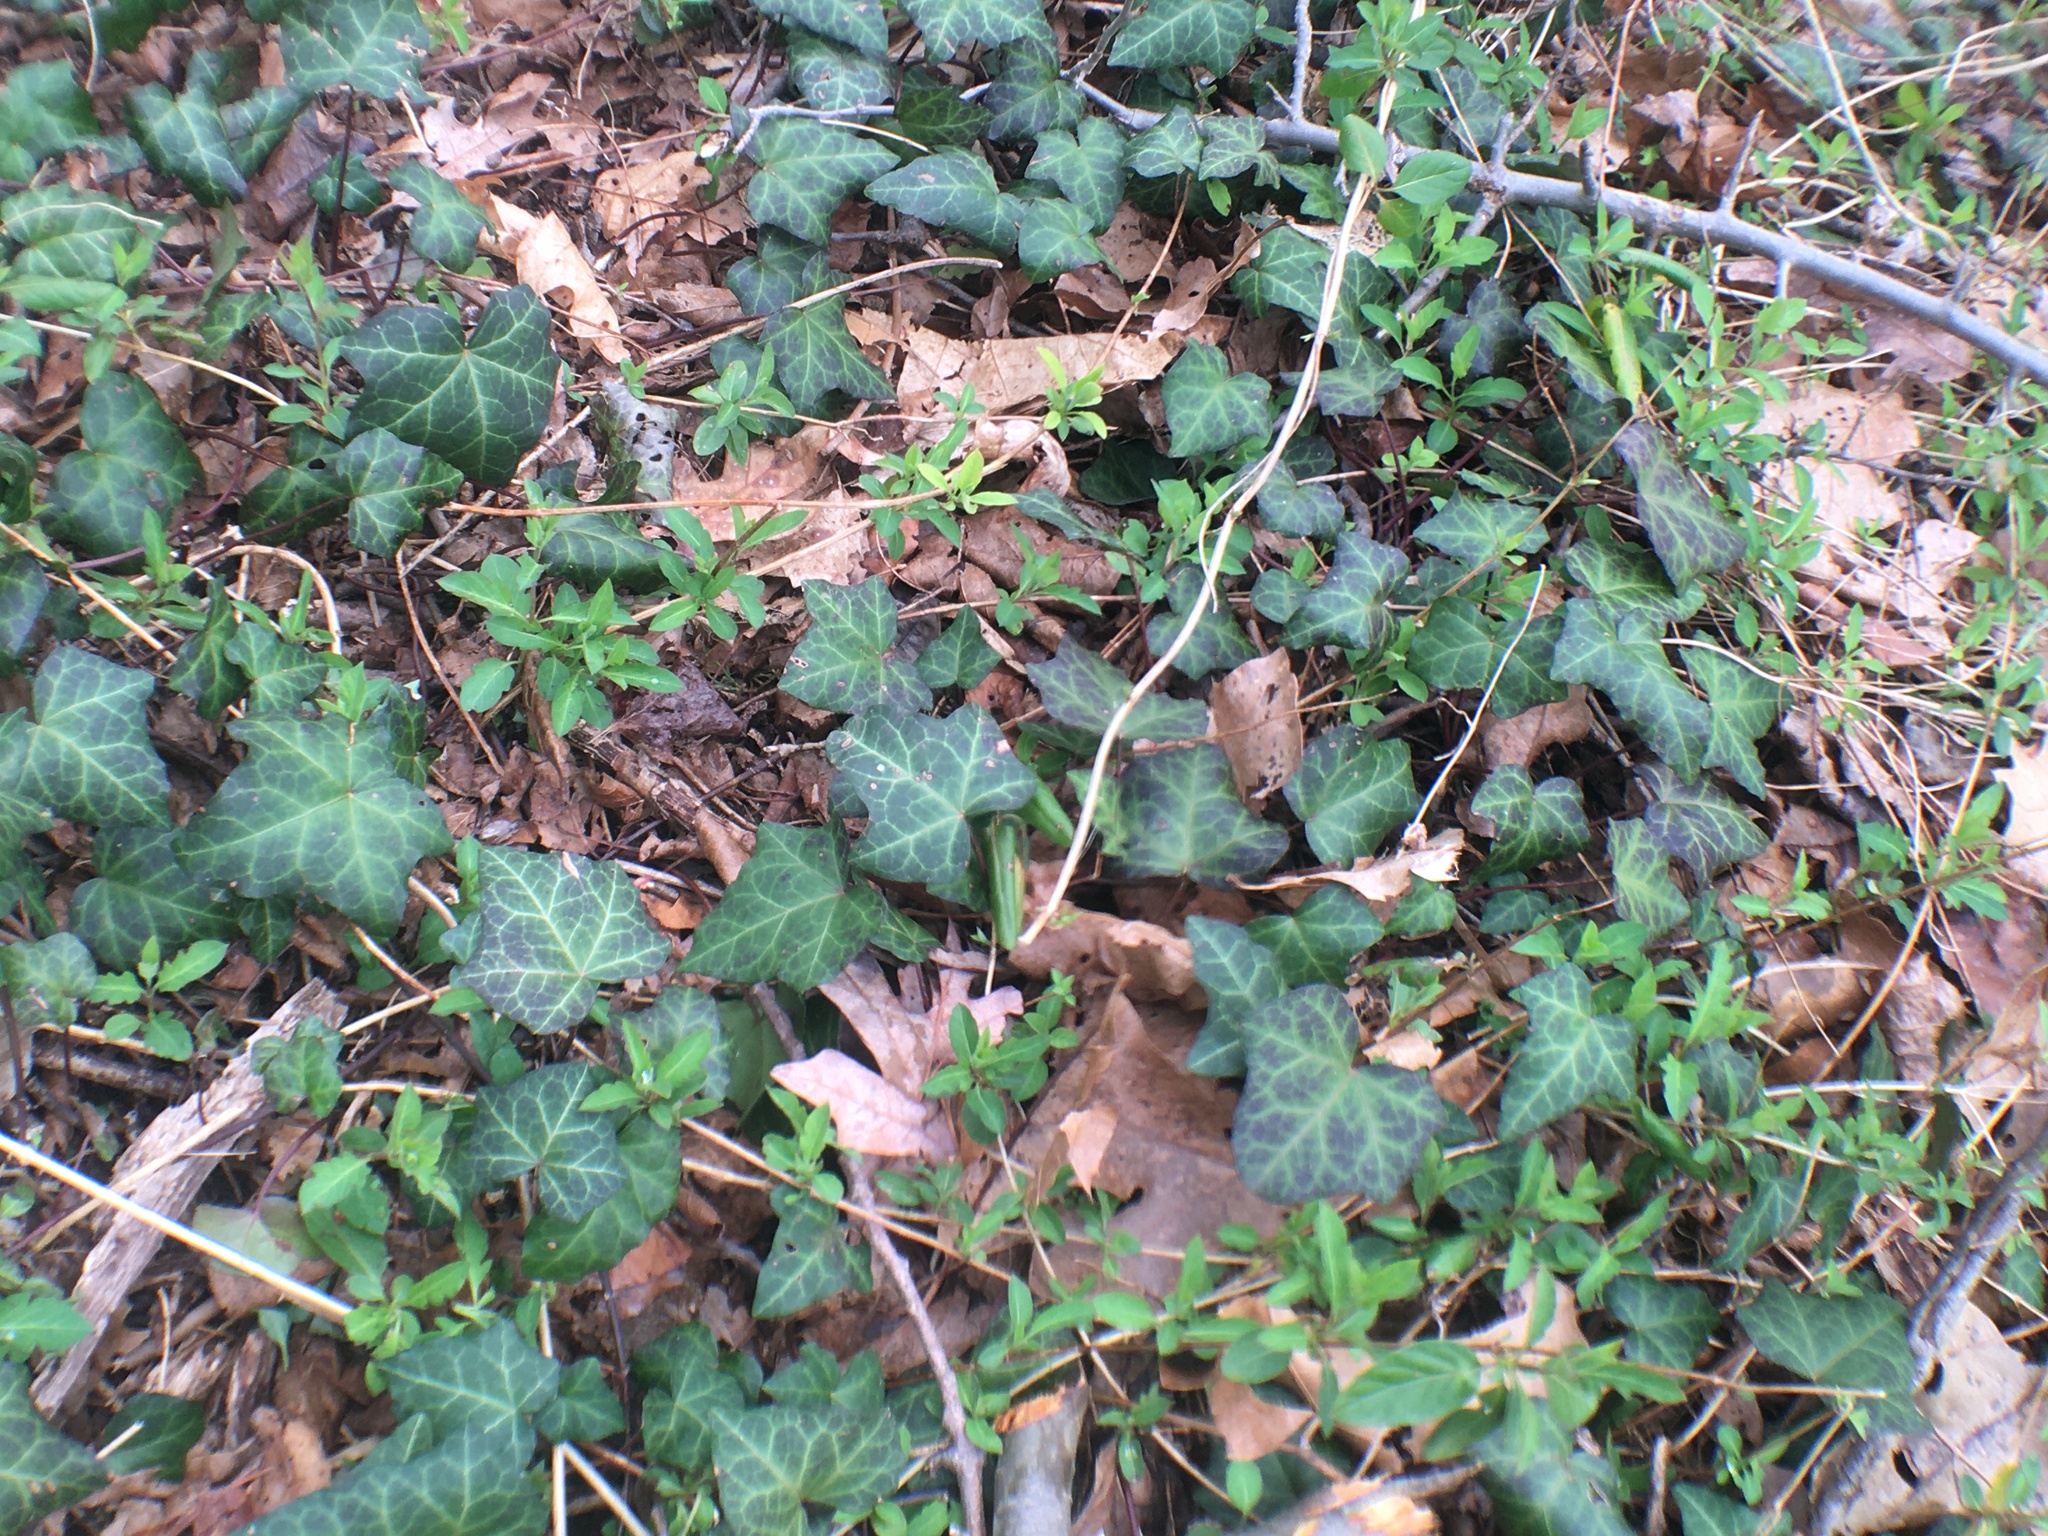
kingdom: Plantae
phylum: Tracheophyta
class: Magnoliopsida
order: Apiales
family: Araliaceae
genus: Hedera
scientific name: Hedera helix
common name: Ivy
